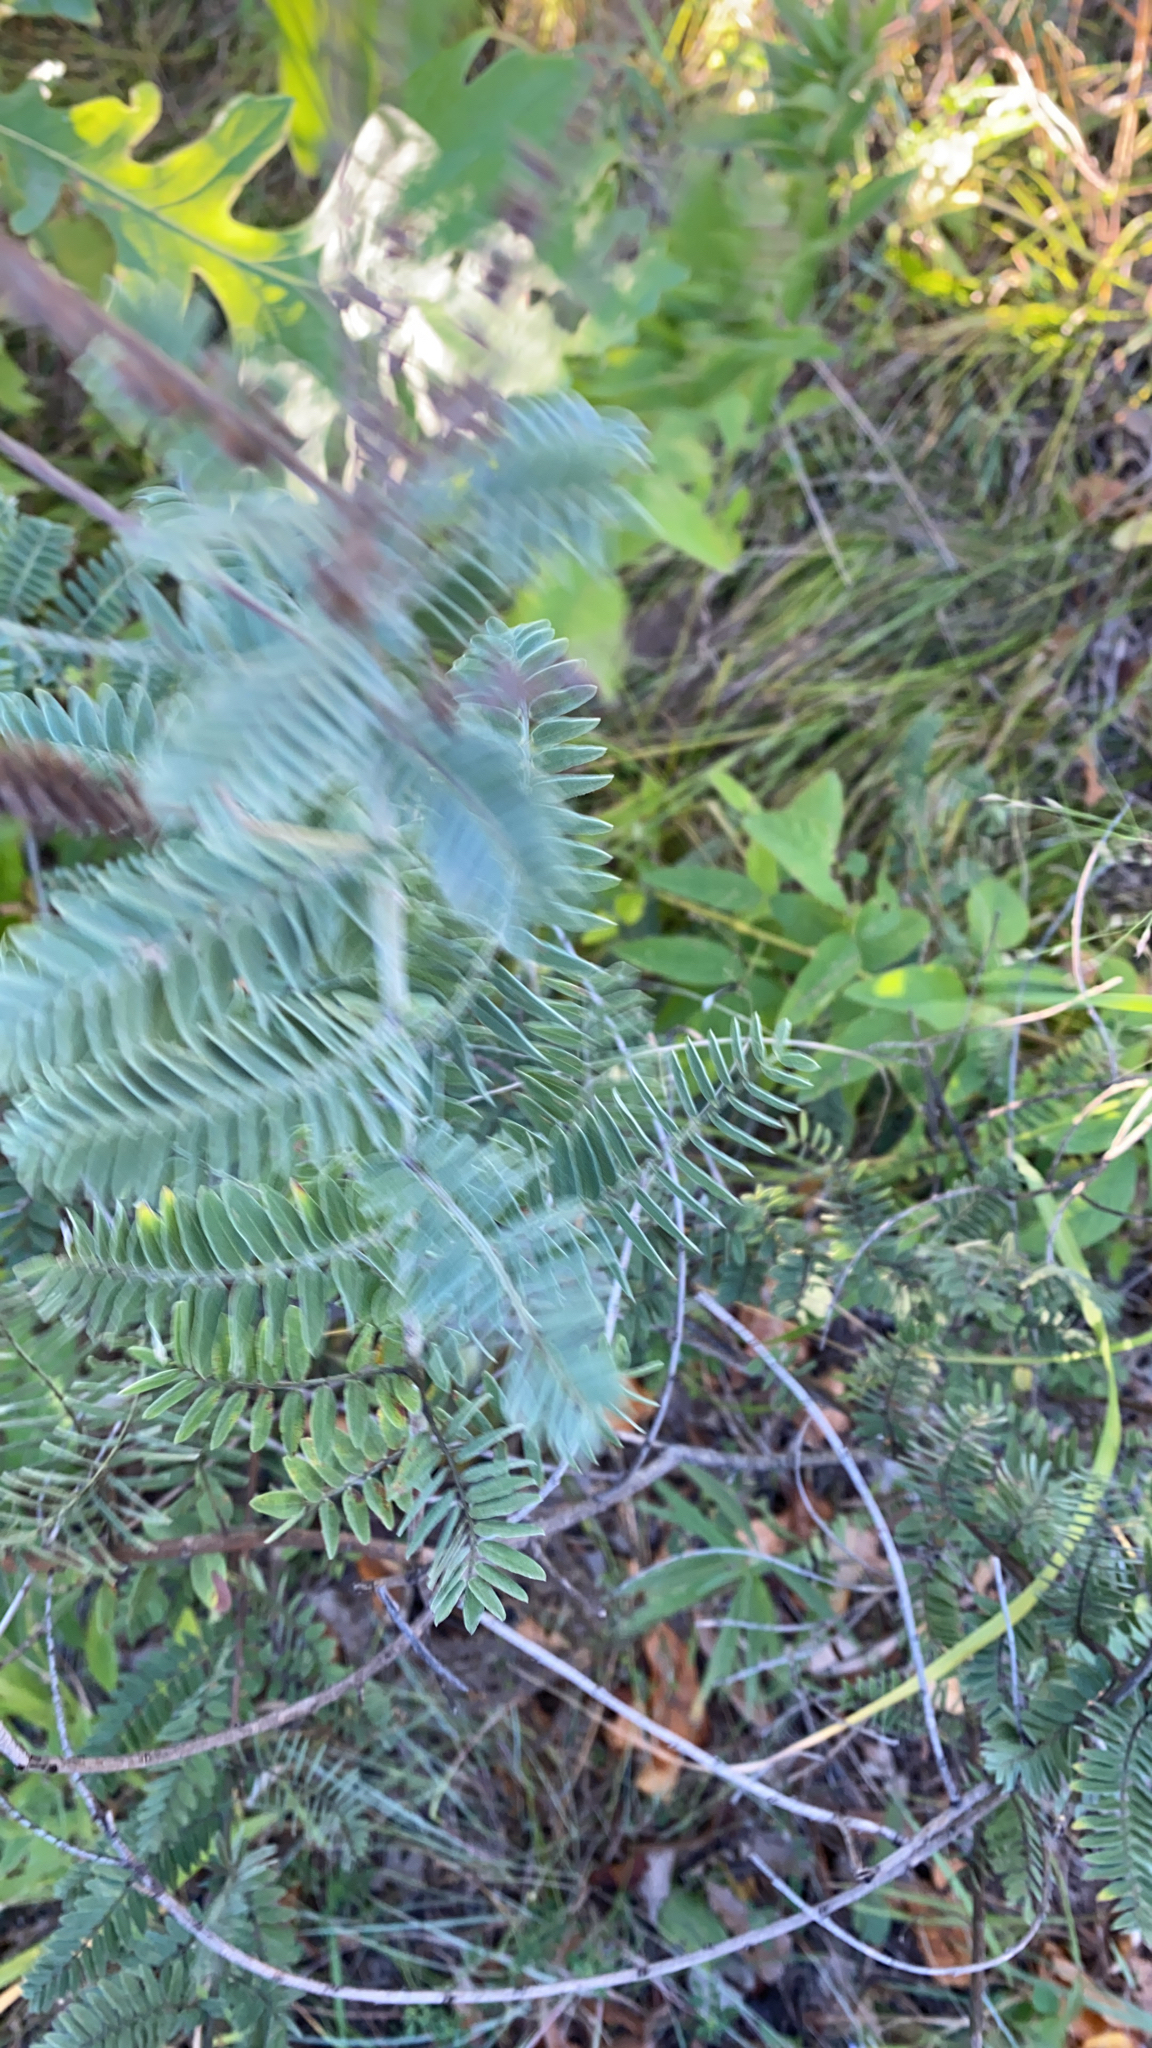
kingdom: Plantae
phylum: Tracheophyta
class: Magnoliopsida
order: Fabales
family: Fabaceae
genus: Amorpha
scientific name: Amorpha canescens
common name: Leadplant
